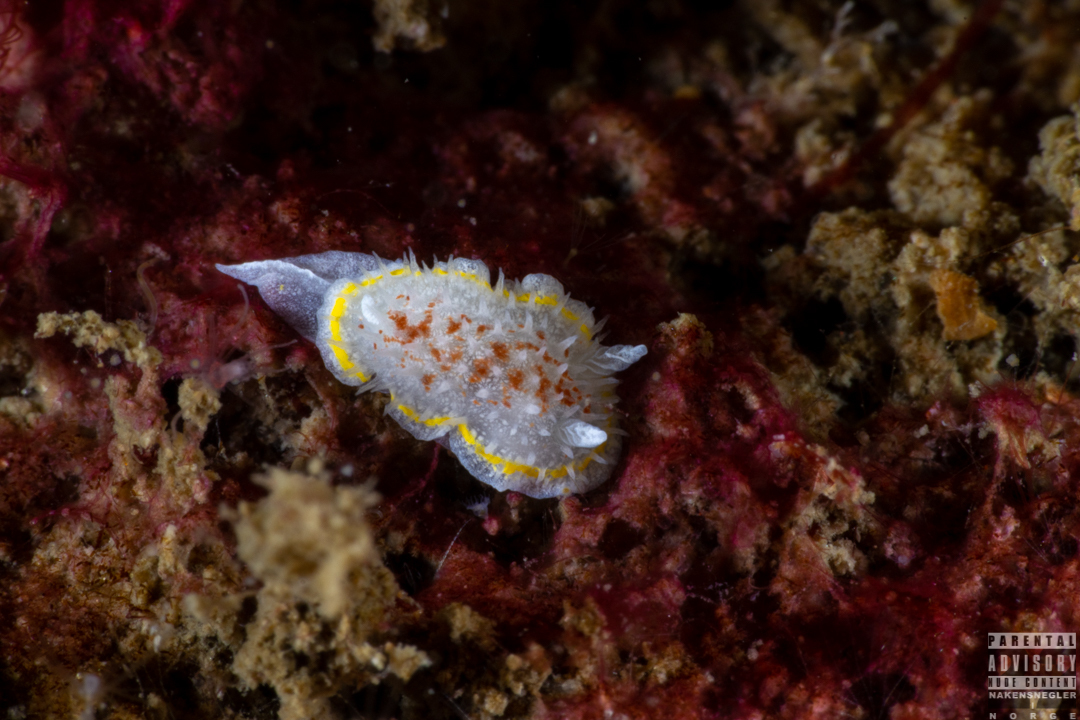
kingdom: Animalia
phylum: Mollusca
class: Gastropoda
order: Nudibranchia
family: Calycidorididae
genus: Diaphorodoris
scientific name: Diaphorodoris luteocincta
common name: Fried egg nudibranch
